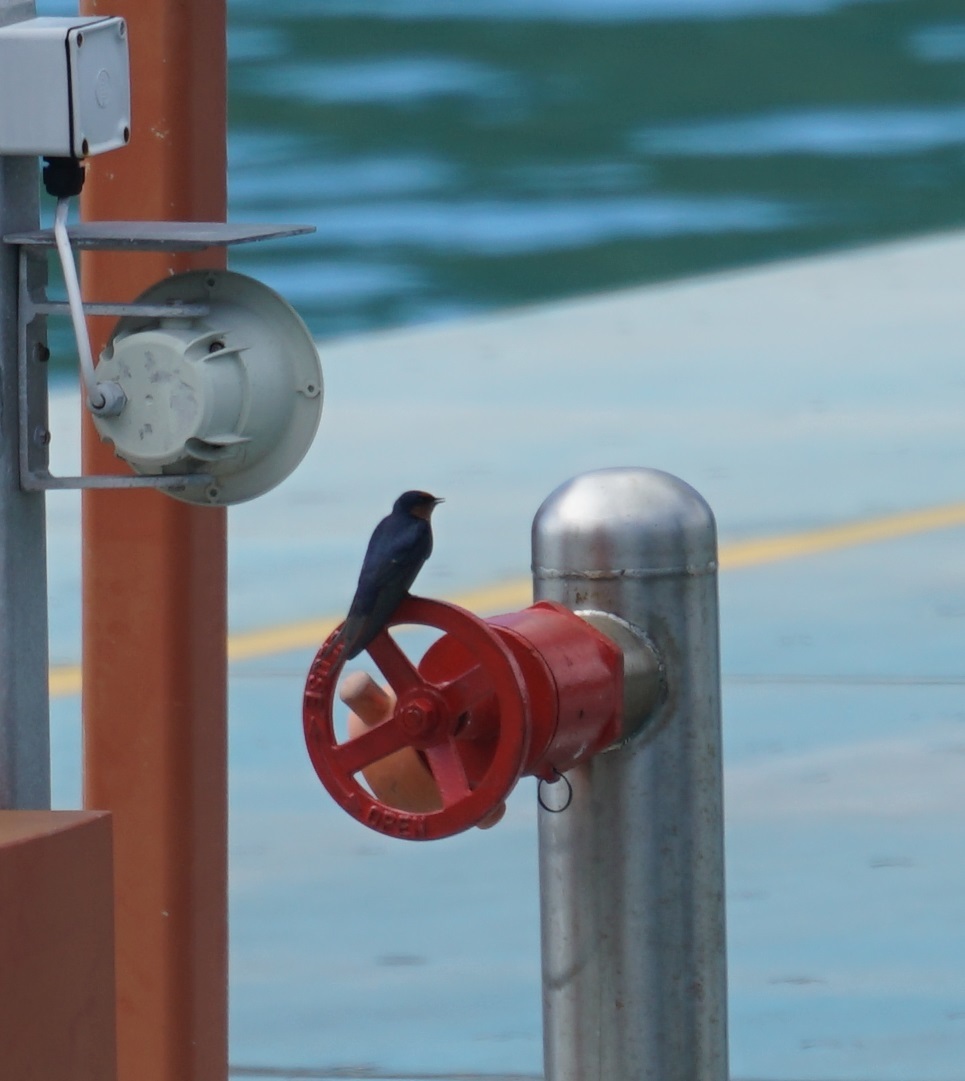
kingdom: Animalia
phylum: Chordata
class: Aves
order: Passeriformes
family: Hirundinidae
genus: Hirundo
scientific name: Hirundo neoxena
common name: Welcome swallow
